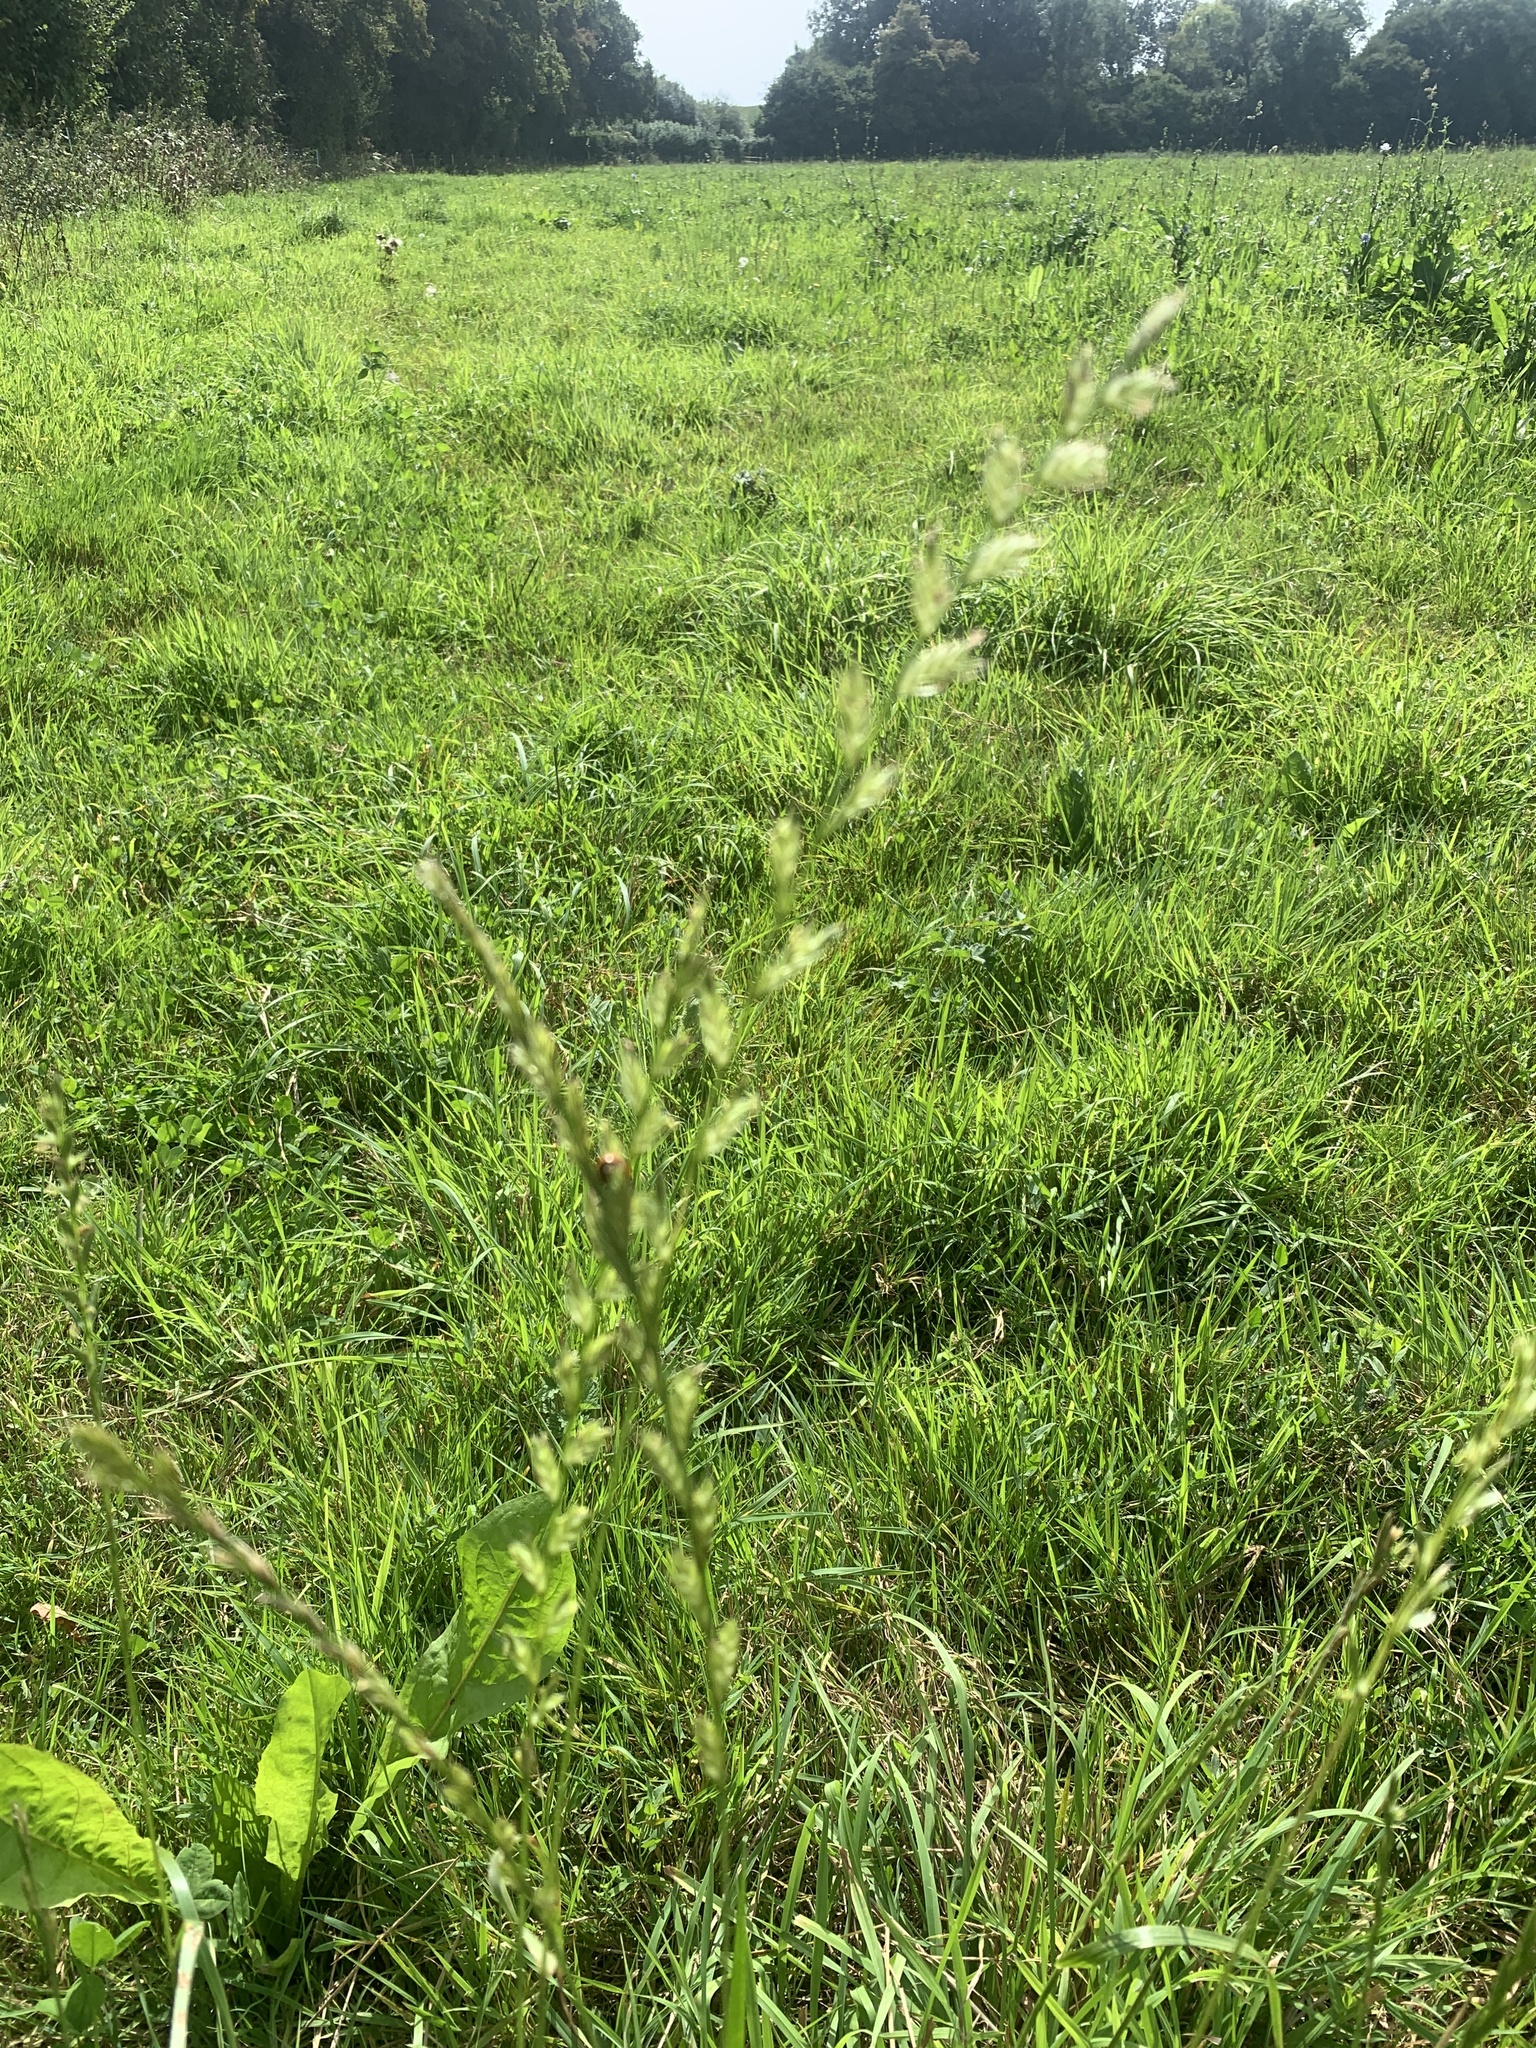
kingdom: Plantae
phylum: Tracheophyta
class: Liliopsida
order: Poales
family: Poaceae
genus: Lolium
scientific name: Lolium perenne
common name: Perennial ryegrass
